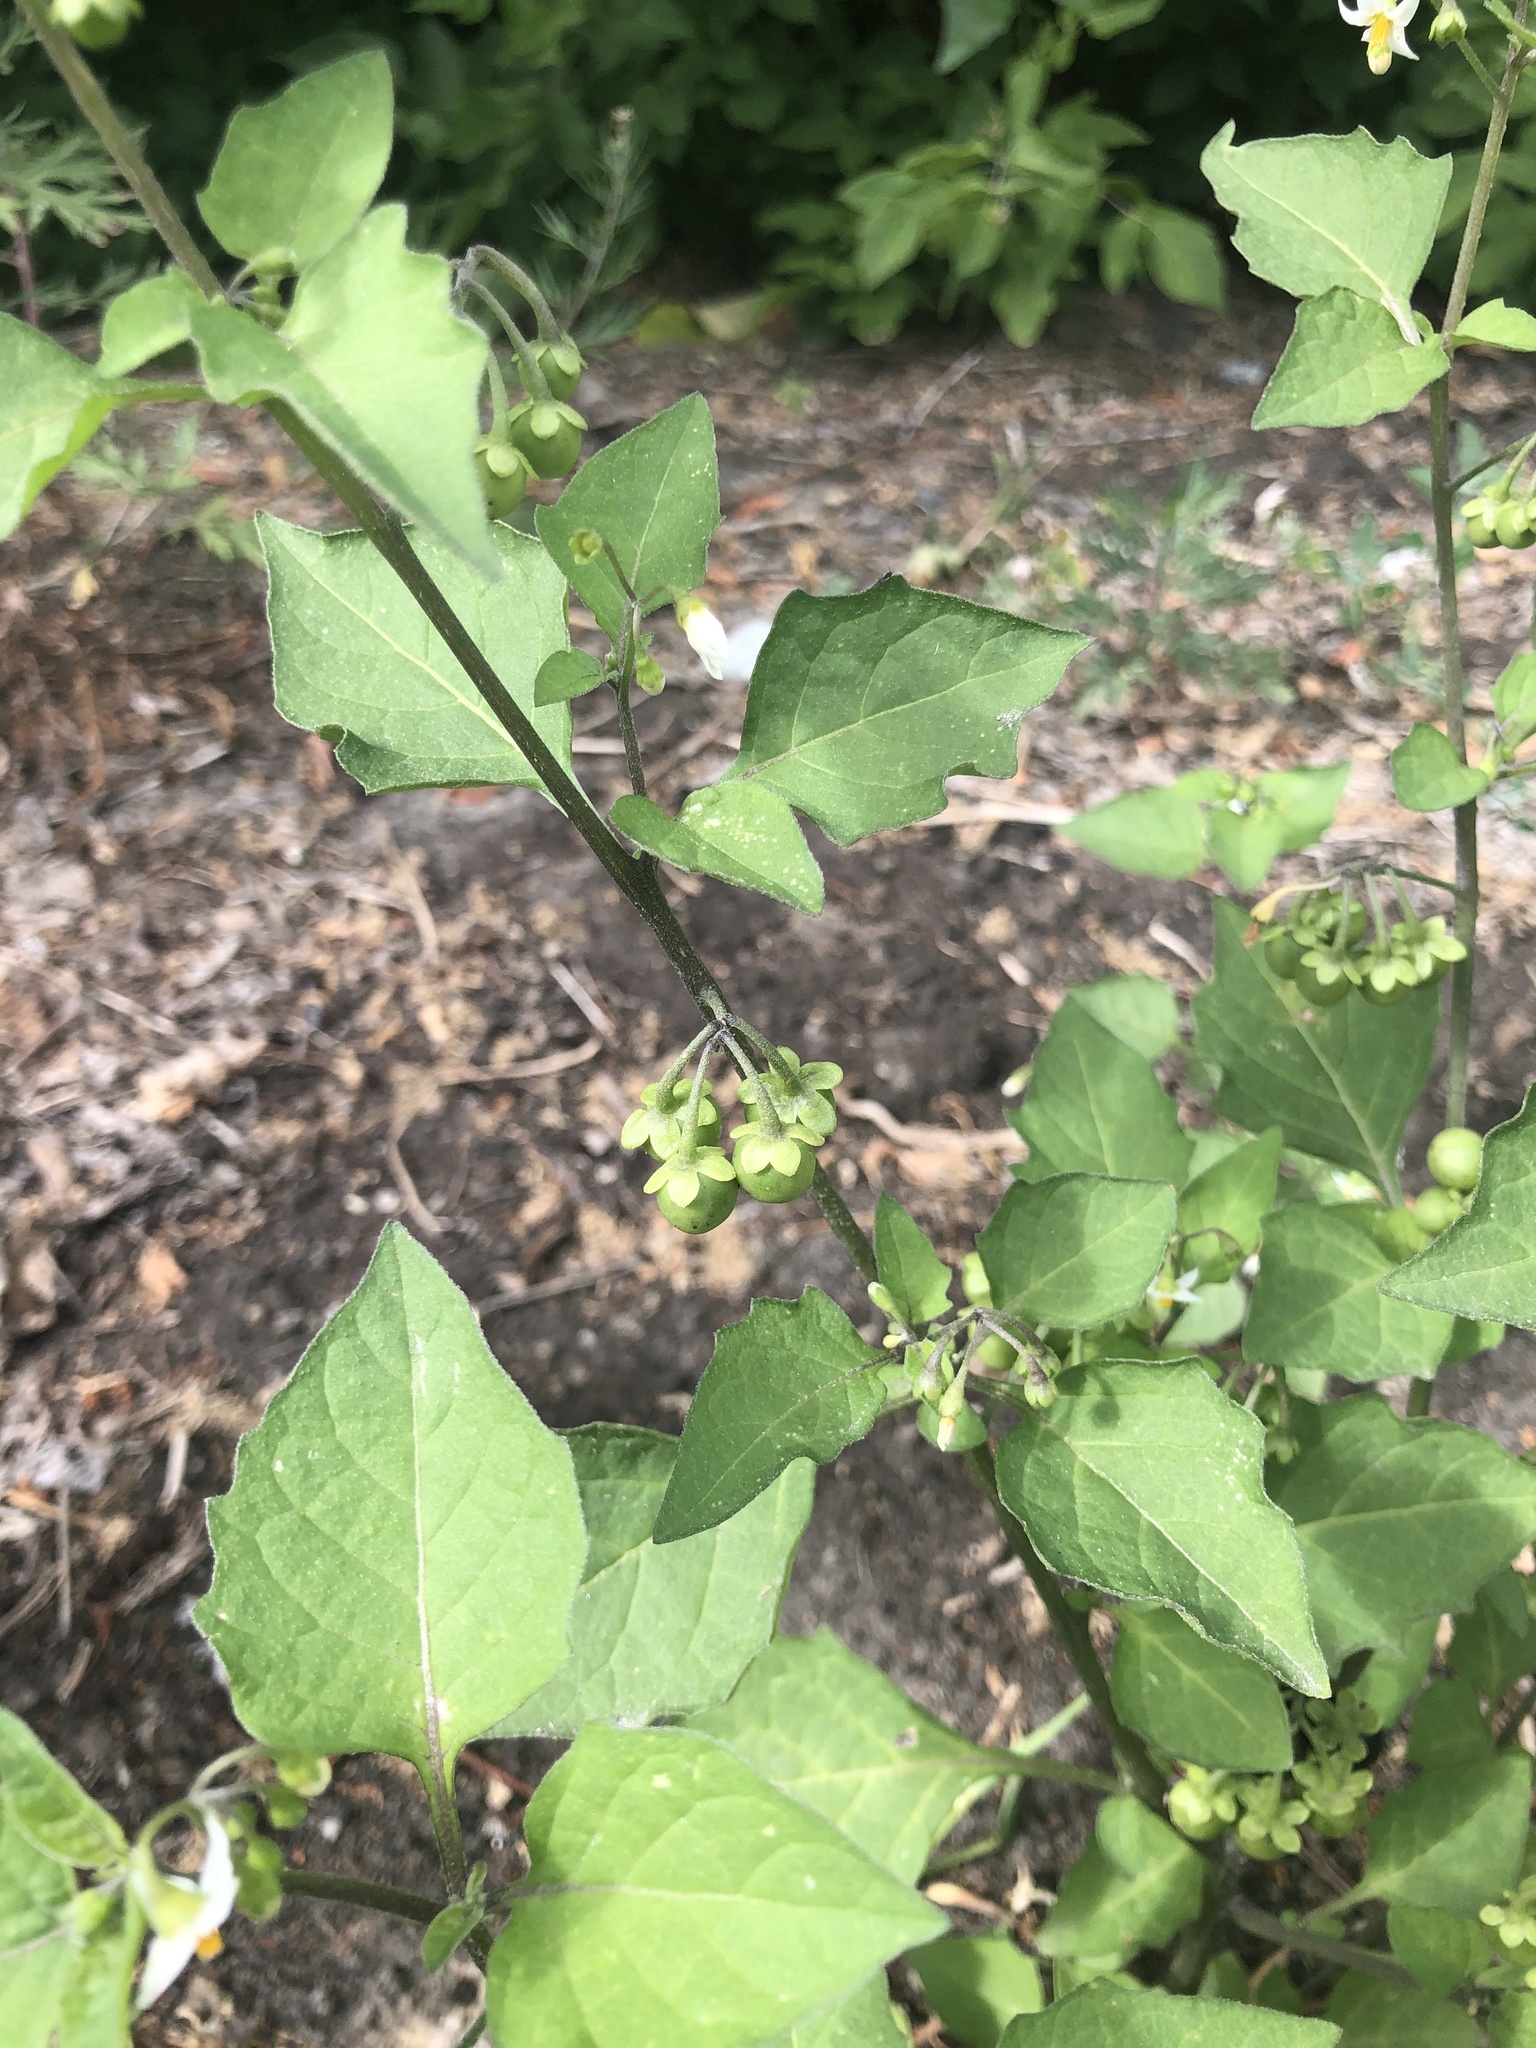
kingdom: Plantae
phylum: Tracheophyta
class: Magnoliopsida
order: Solanales
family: Solanaceae
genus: Solanum
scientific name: Solanum nigrum
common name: Black nightshade
